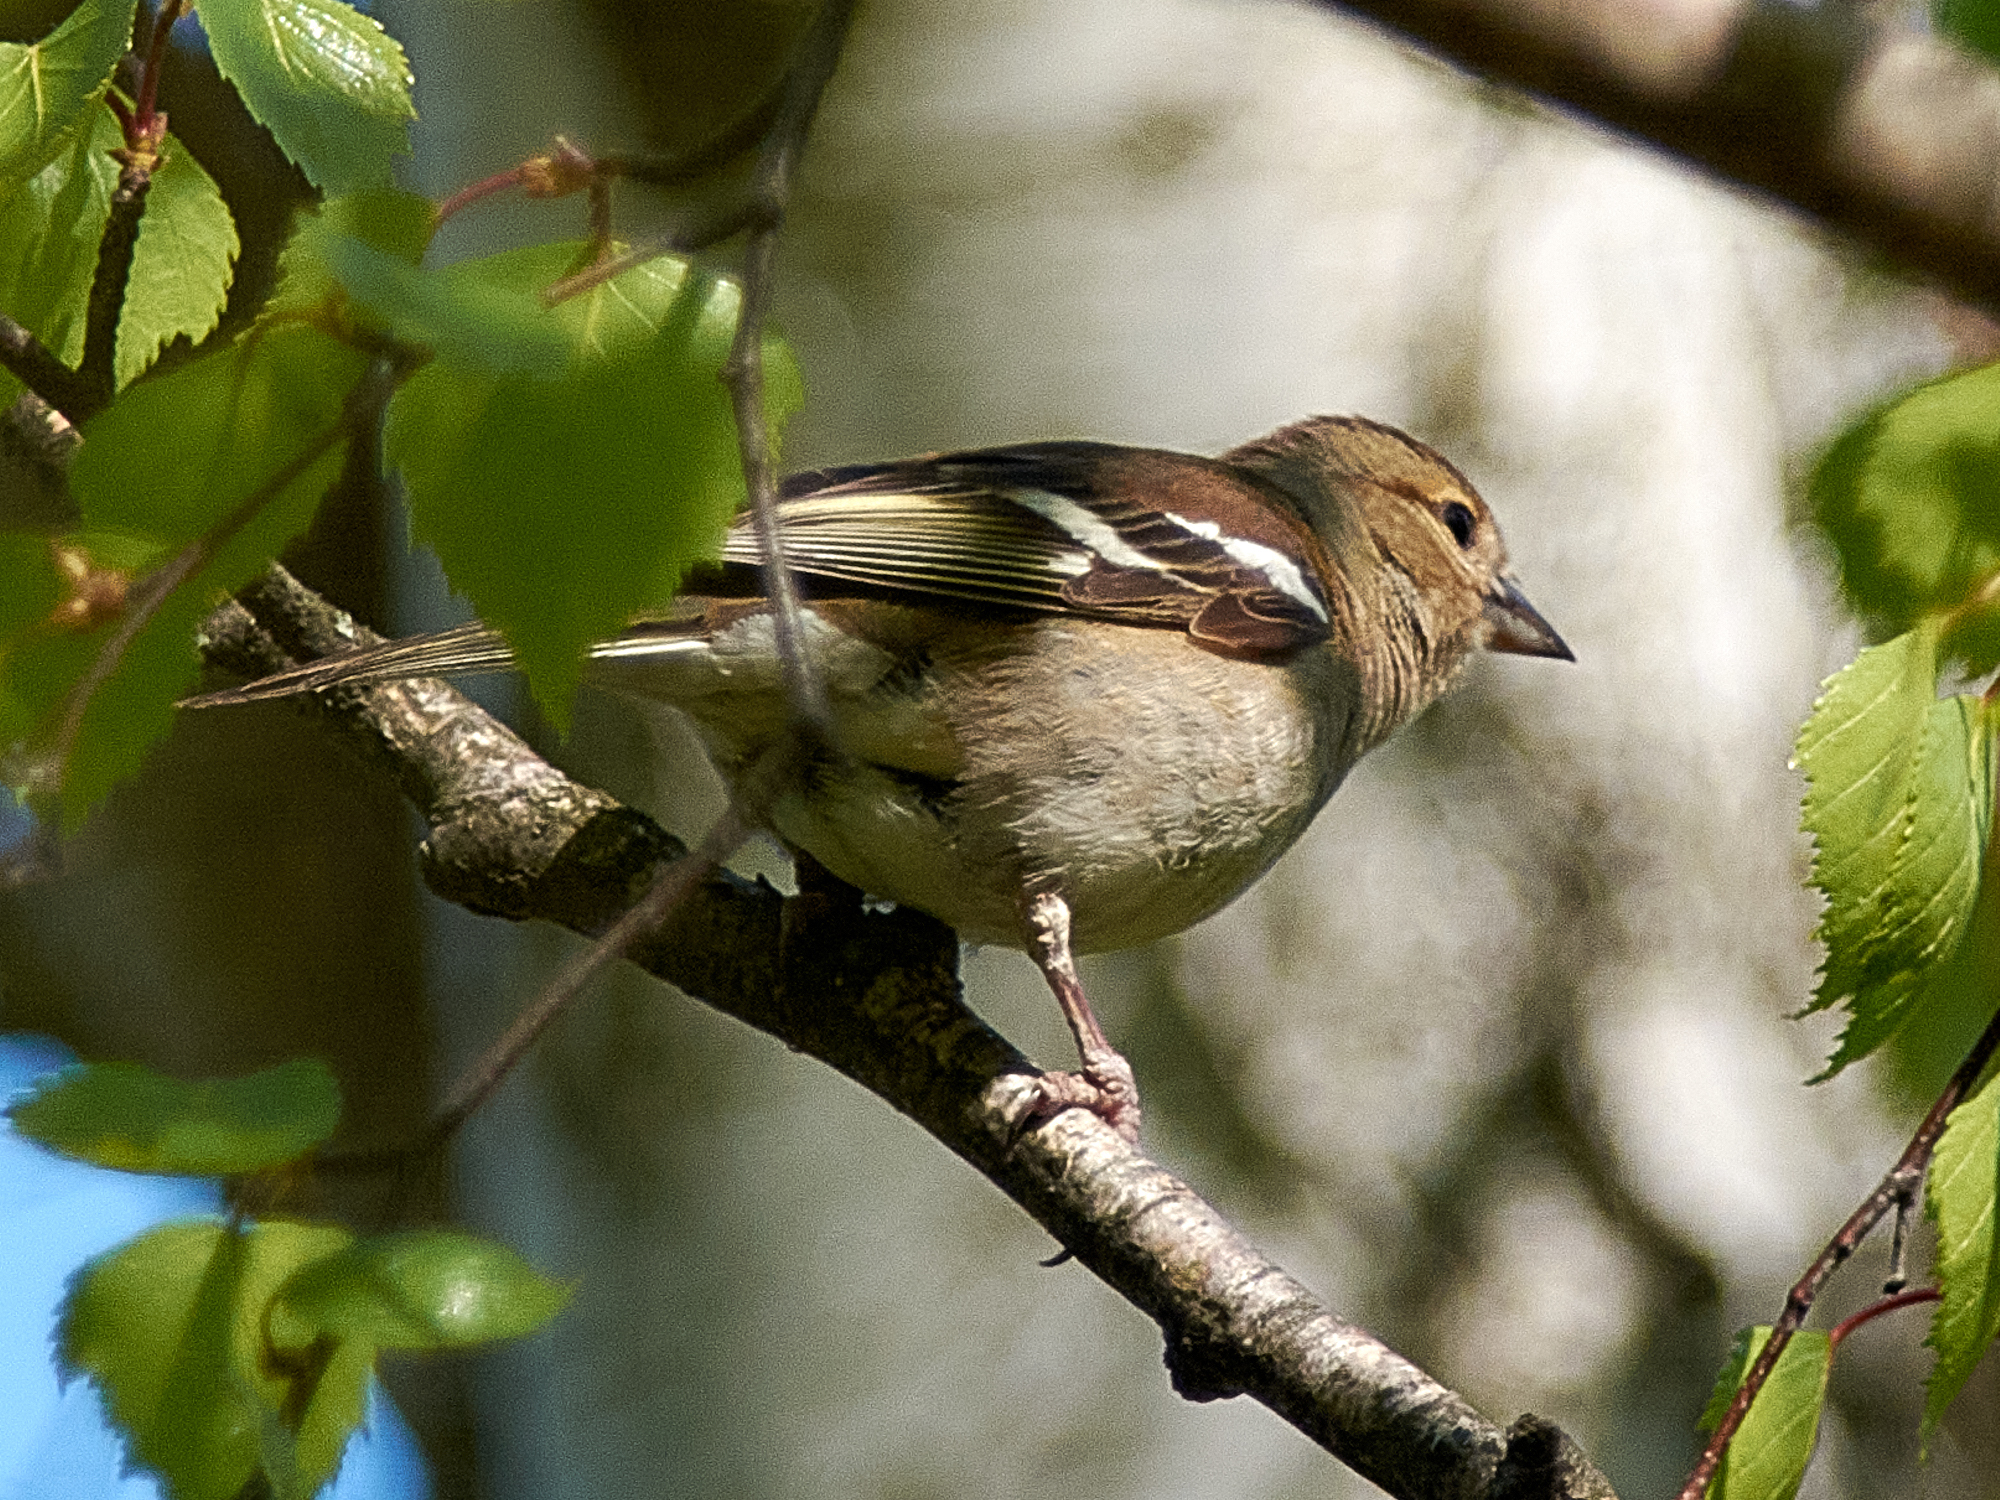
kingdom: Animalia
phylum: Chordata
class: Aves
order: Passeriformes
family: Fringillidae
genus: Fringilla
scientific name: Fringilla coelebs
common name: Common chaffinch
